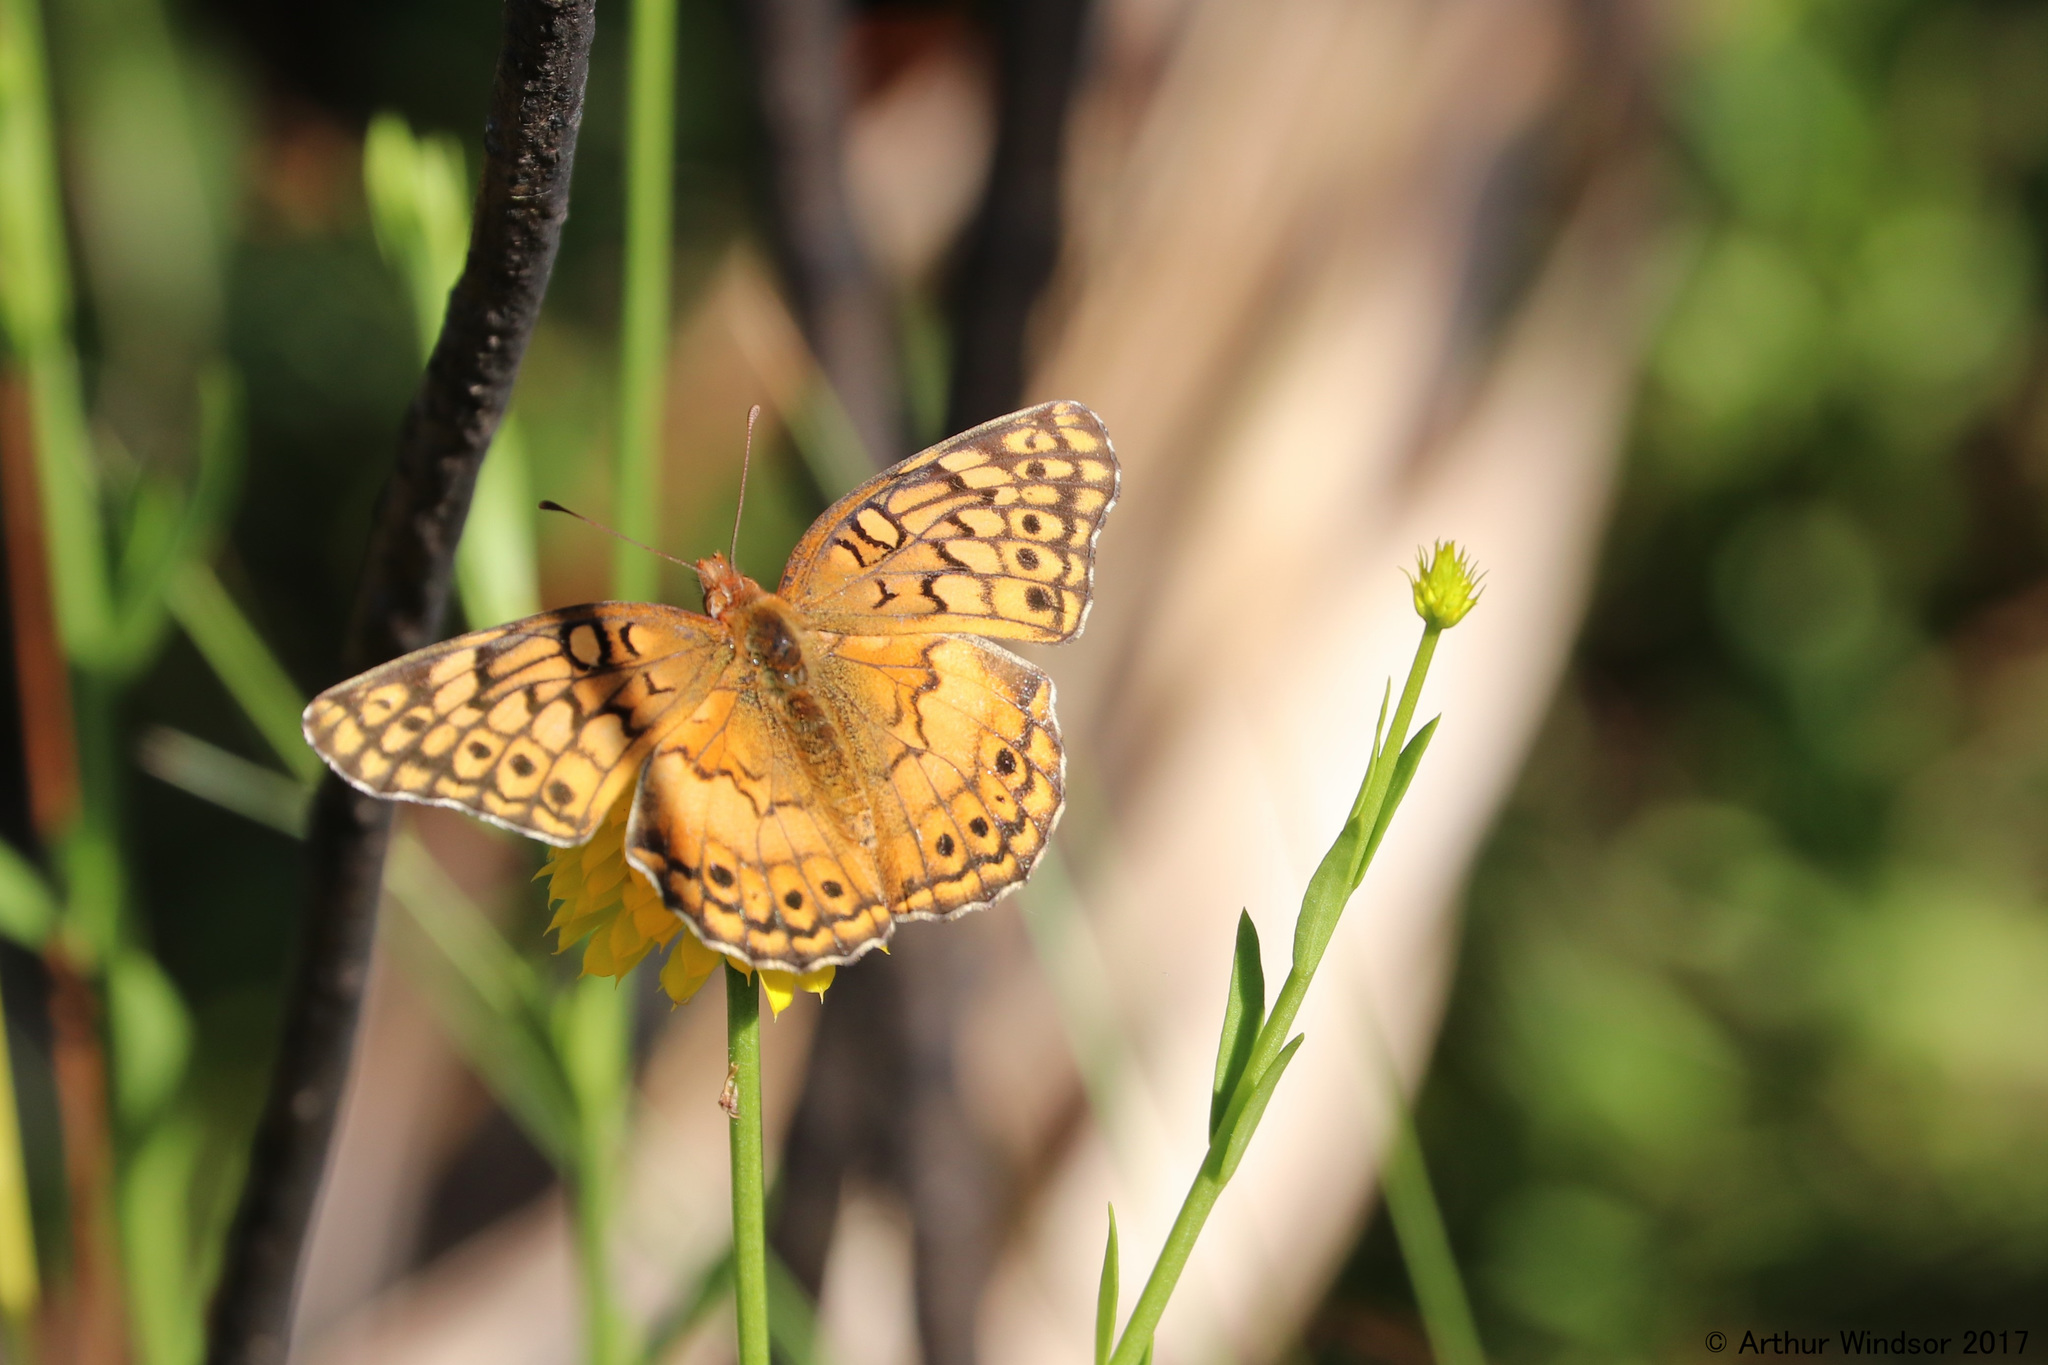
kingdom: Animalia
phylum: Arthropoda
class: Insecta
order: Lepidoptera
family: Nymphalidae
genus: Euptoieta
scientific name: Euptoieta claudia
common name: Variegated fritillary
